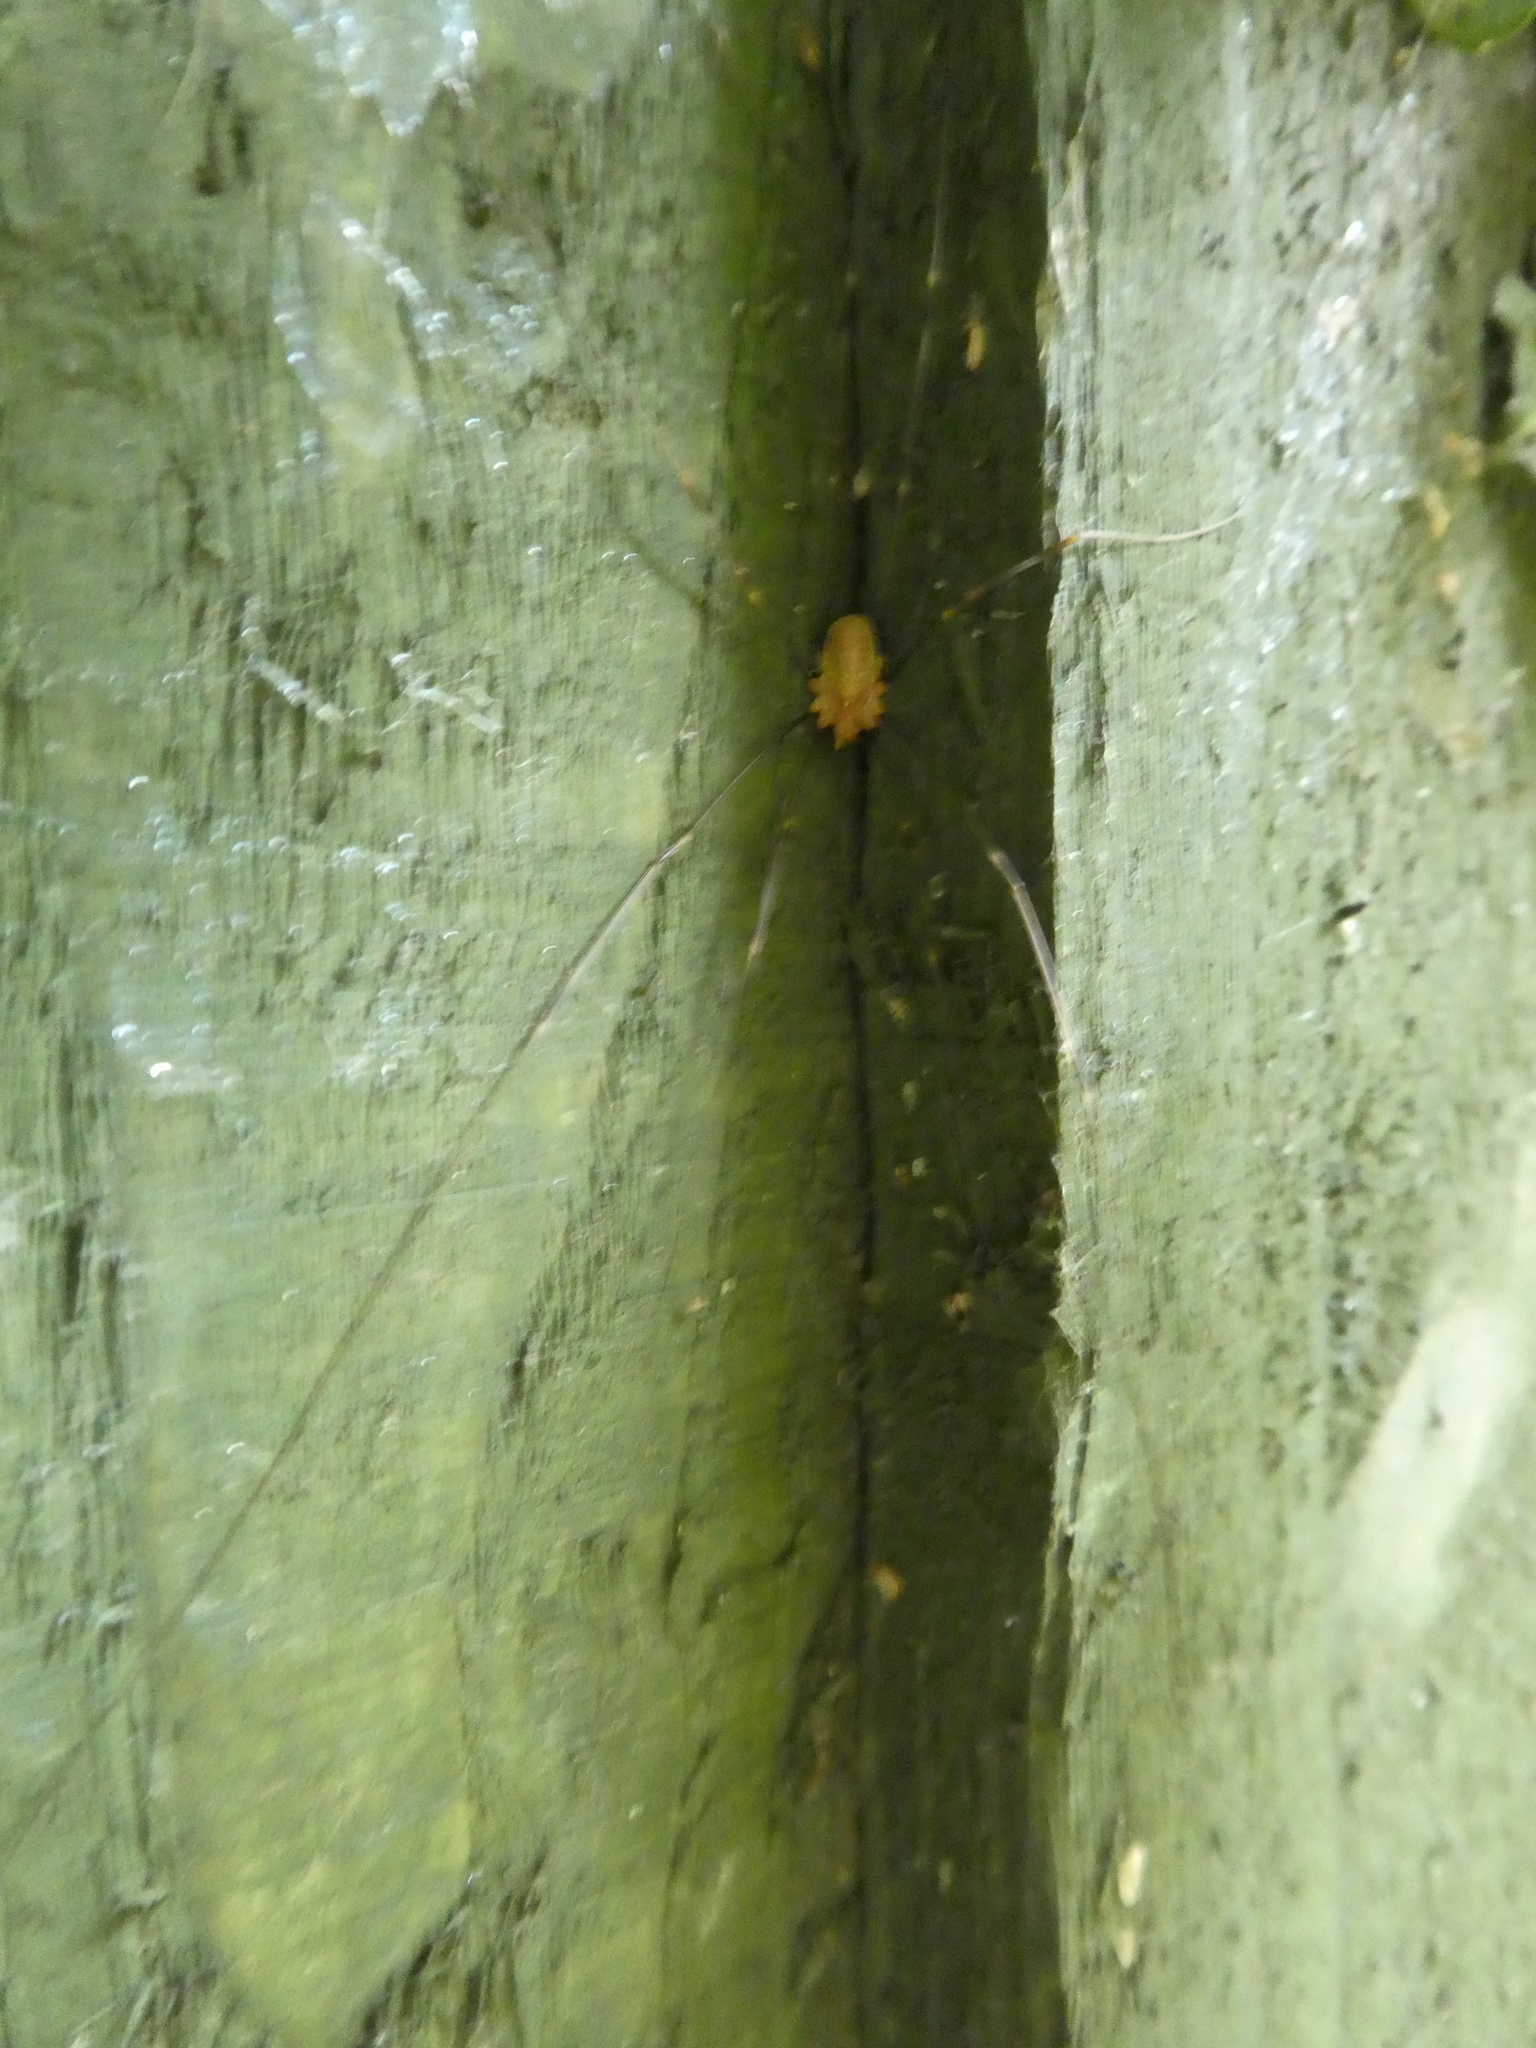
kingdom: Animalia
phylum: Arthropoda
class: Arachnida
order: Opiliones
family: Phalangiidae
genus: Opilio
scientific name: Opilio canestrinii
